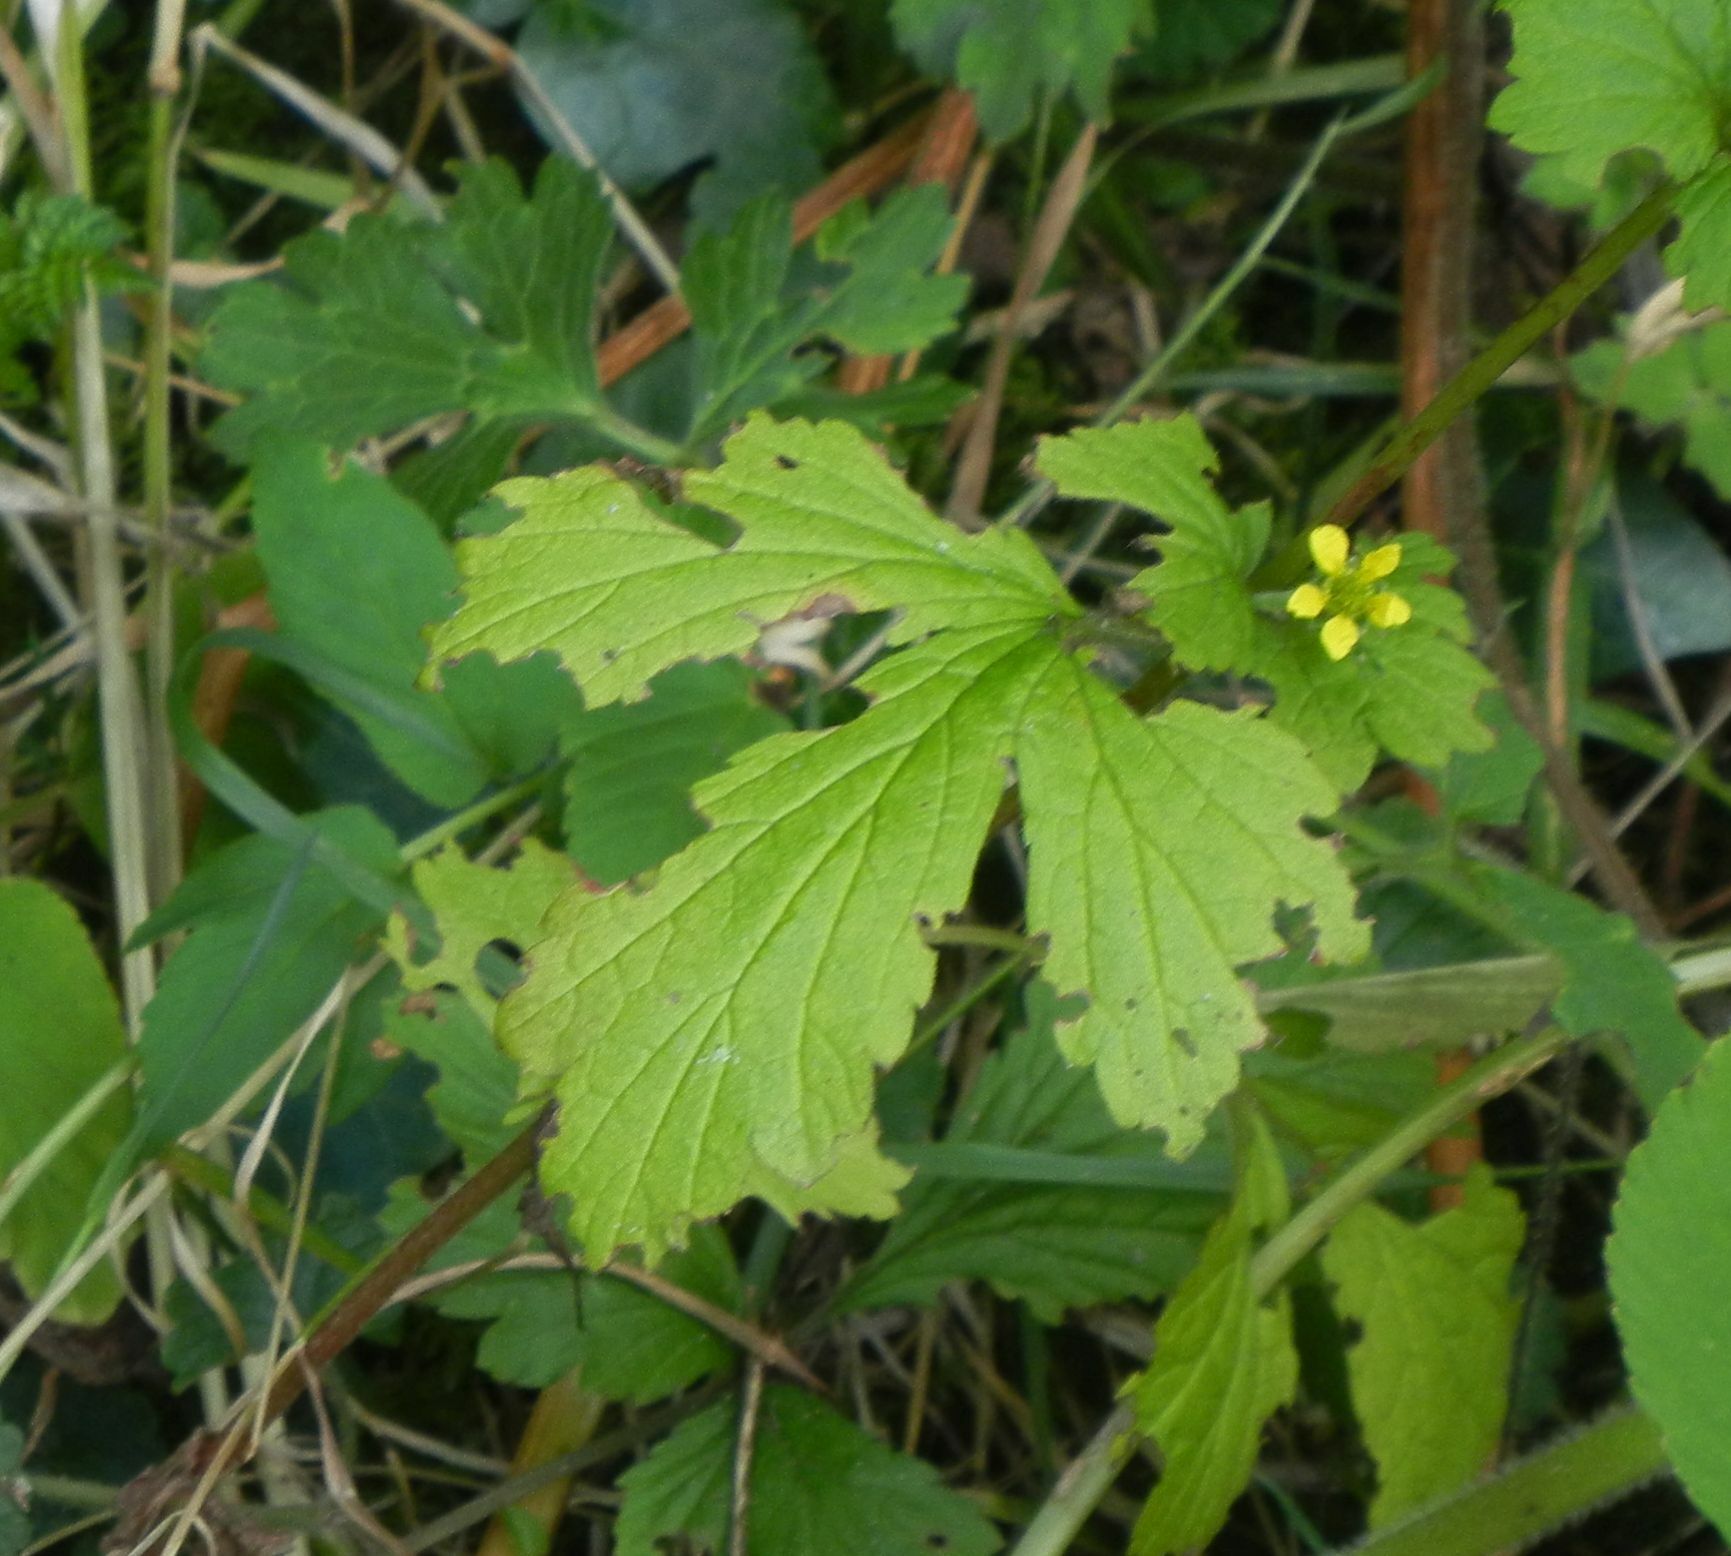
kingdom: Plantae
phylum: Tracheophyta
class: Magnoliopsida
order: Rosales
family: Rosaceae
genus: Geum
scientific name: Geum urbanum
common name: Wood avens
